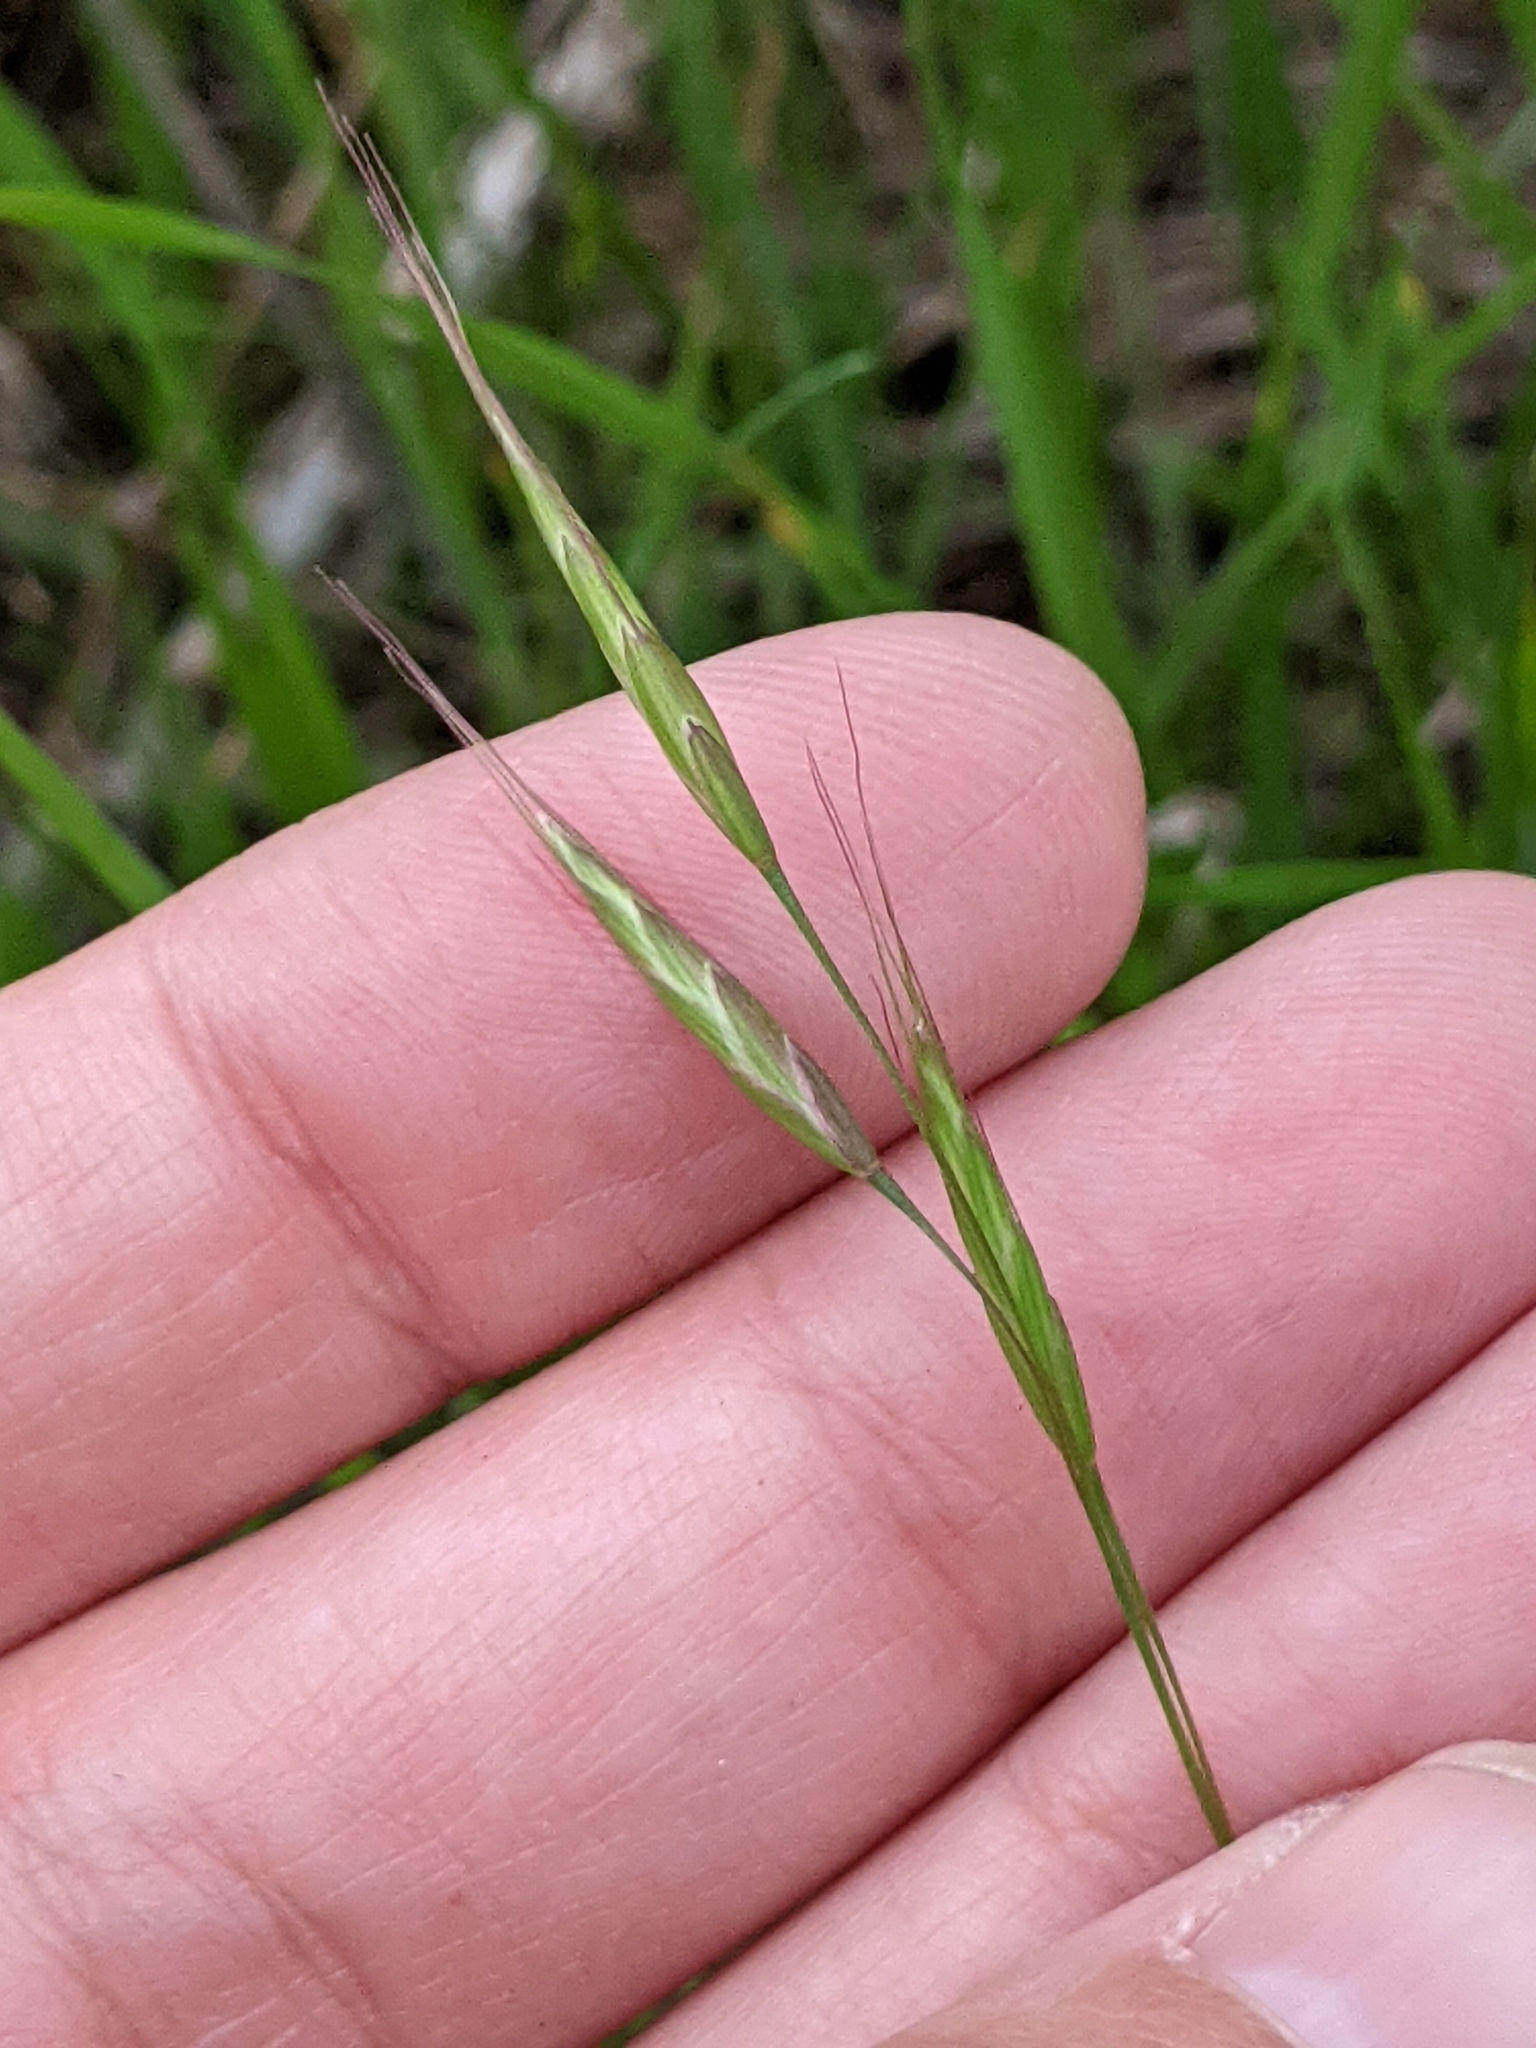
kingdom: Plantae
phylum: Tracheophyta
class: Liliopsida
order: Poales
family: Poaceae
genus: Bromus
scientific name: Bromus japonicus
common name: Japanese brome
